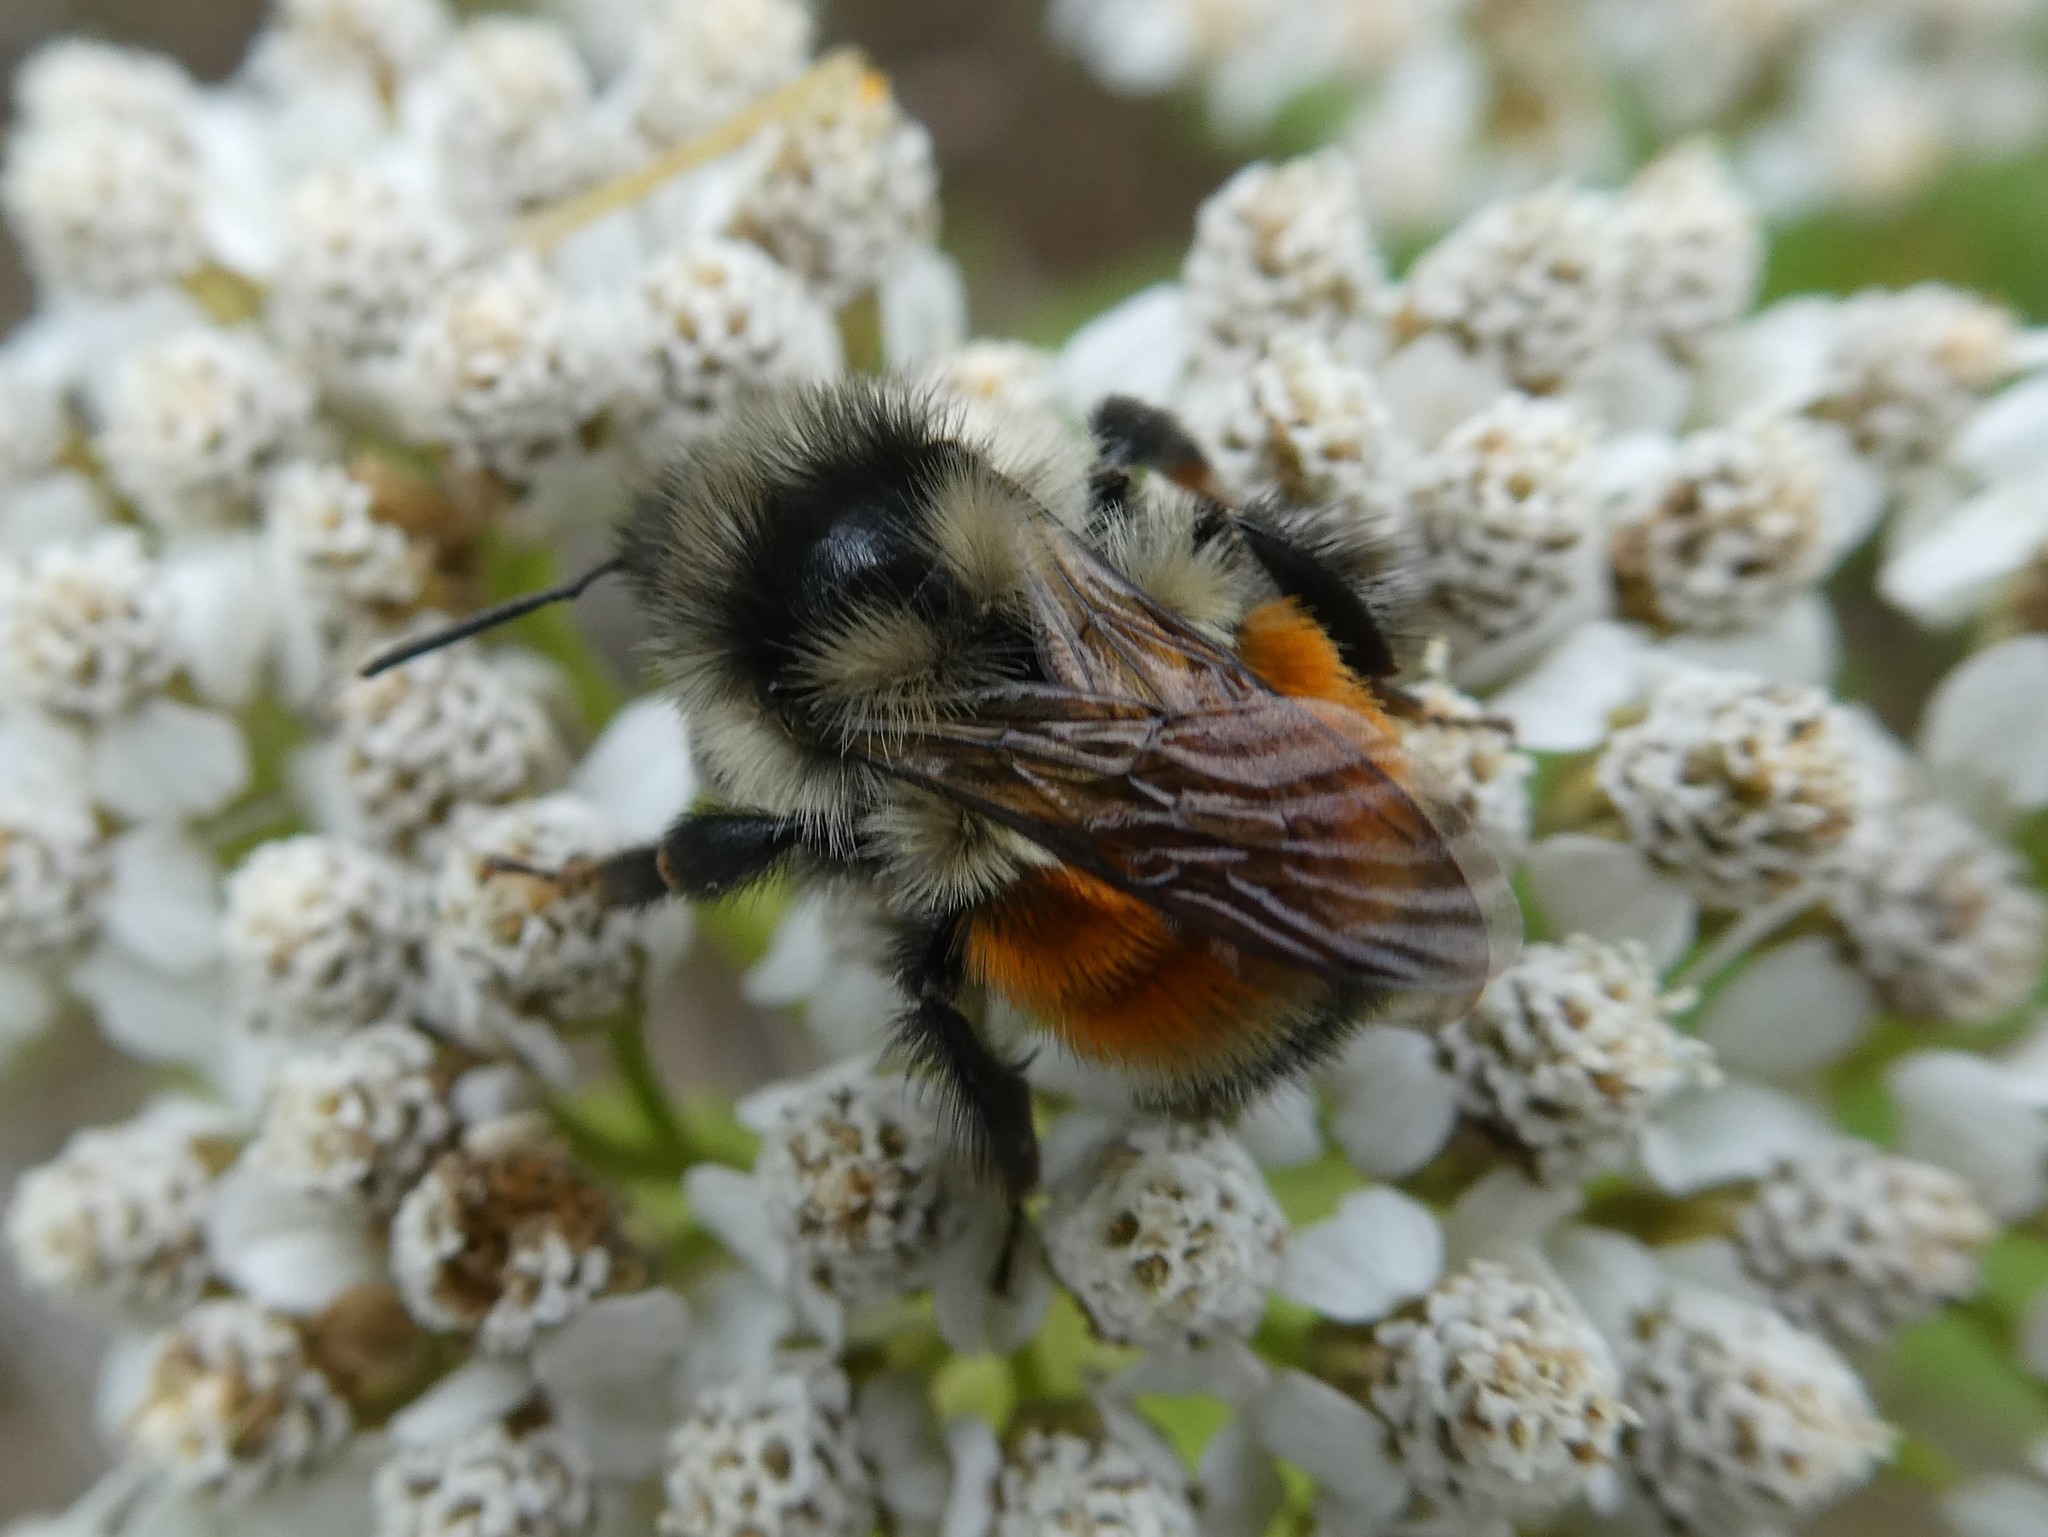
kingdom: Animalia
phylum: Arthropoda
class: Insecta
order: Hymenoptera
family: Apidae
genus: Bombus
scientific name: Bombus ternarius
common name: Tri-colored bumble bee
